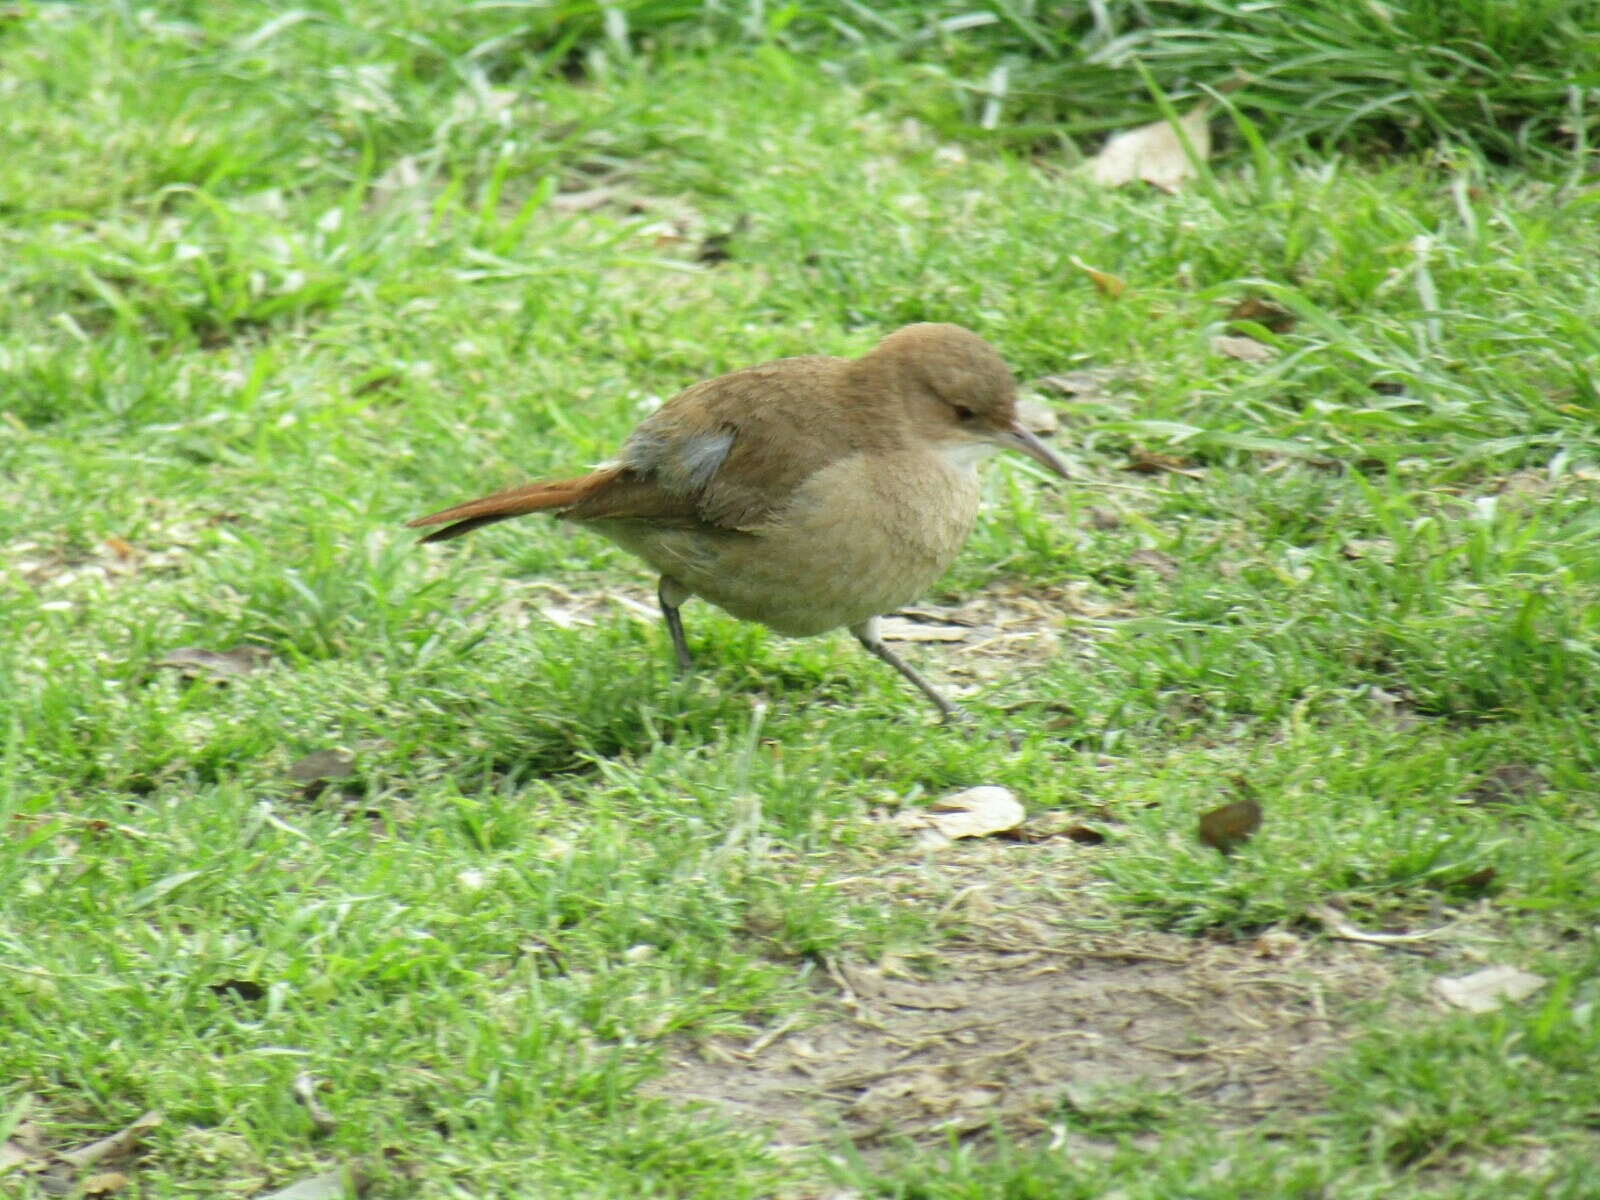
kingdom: Animalia
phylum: Chordata
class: Aves
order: Passeriformes
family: Furnariidae
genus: Furnarius
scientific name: Furnarius rufus
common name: Rufous hornero
